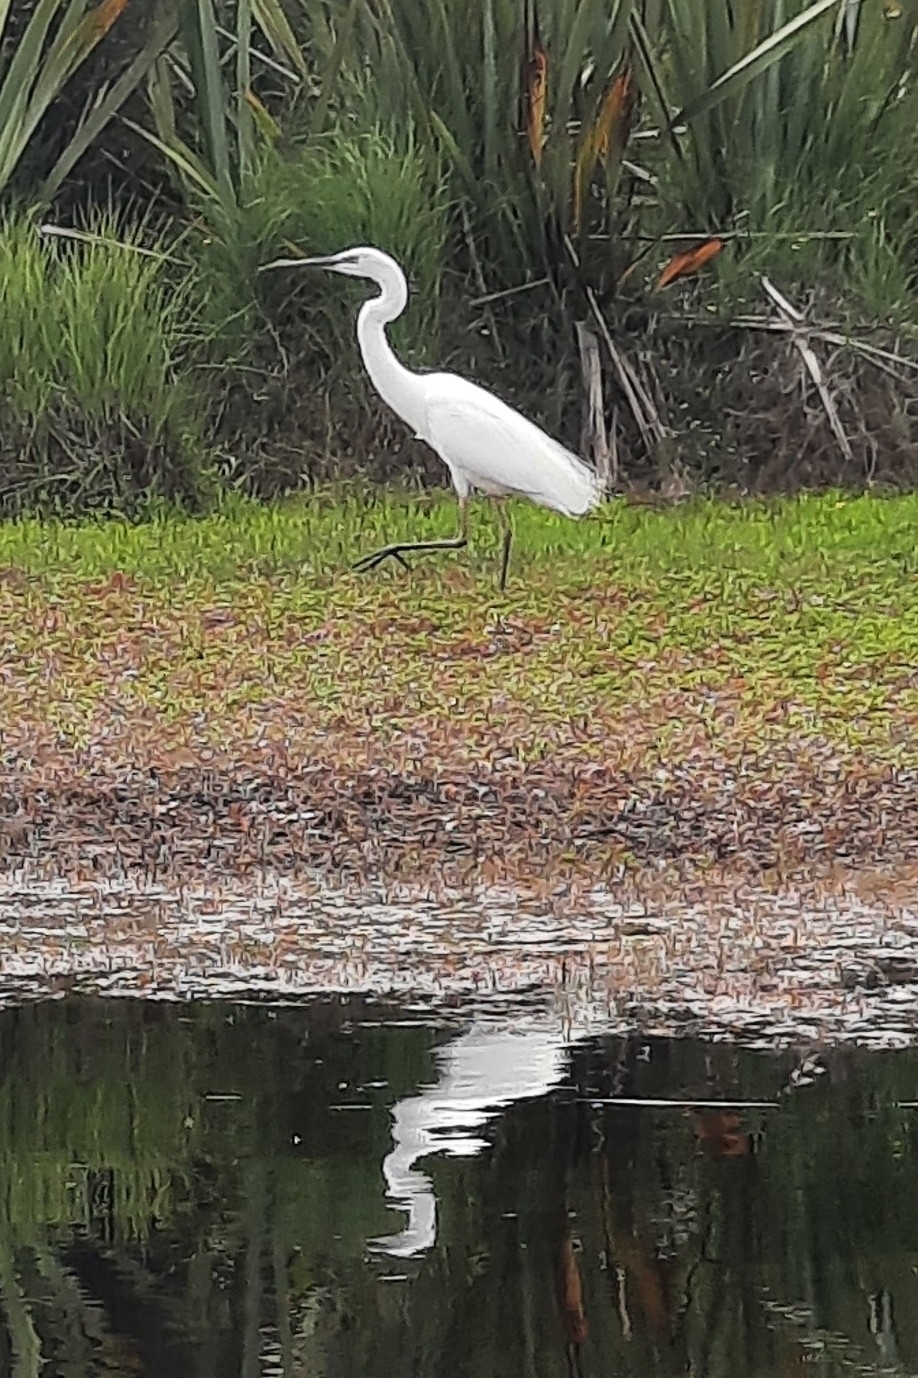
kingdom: Animalia
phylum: Chordata
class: Aves
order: Pelecaniformes
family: Ardeidae
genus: Ardea
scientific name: Ardea modesta
